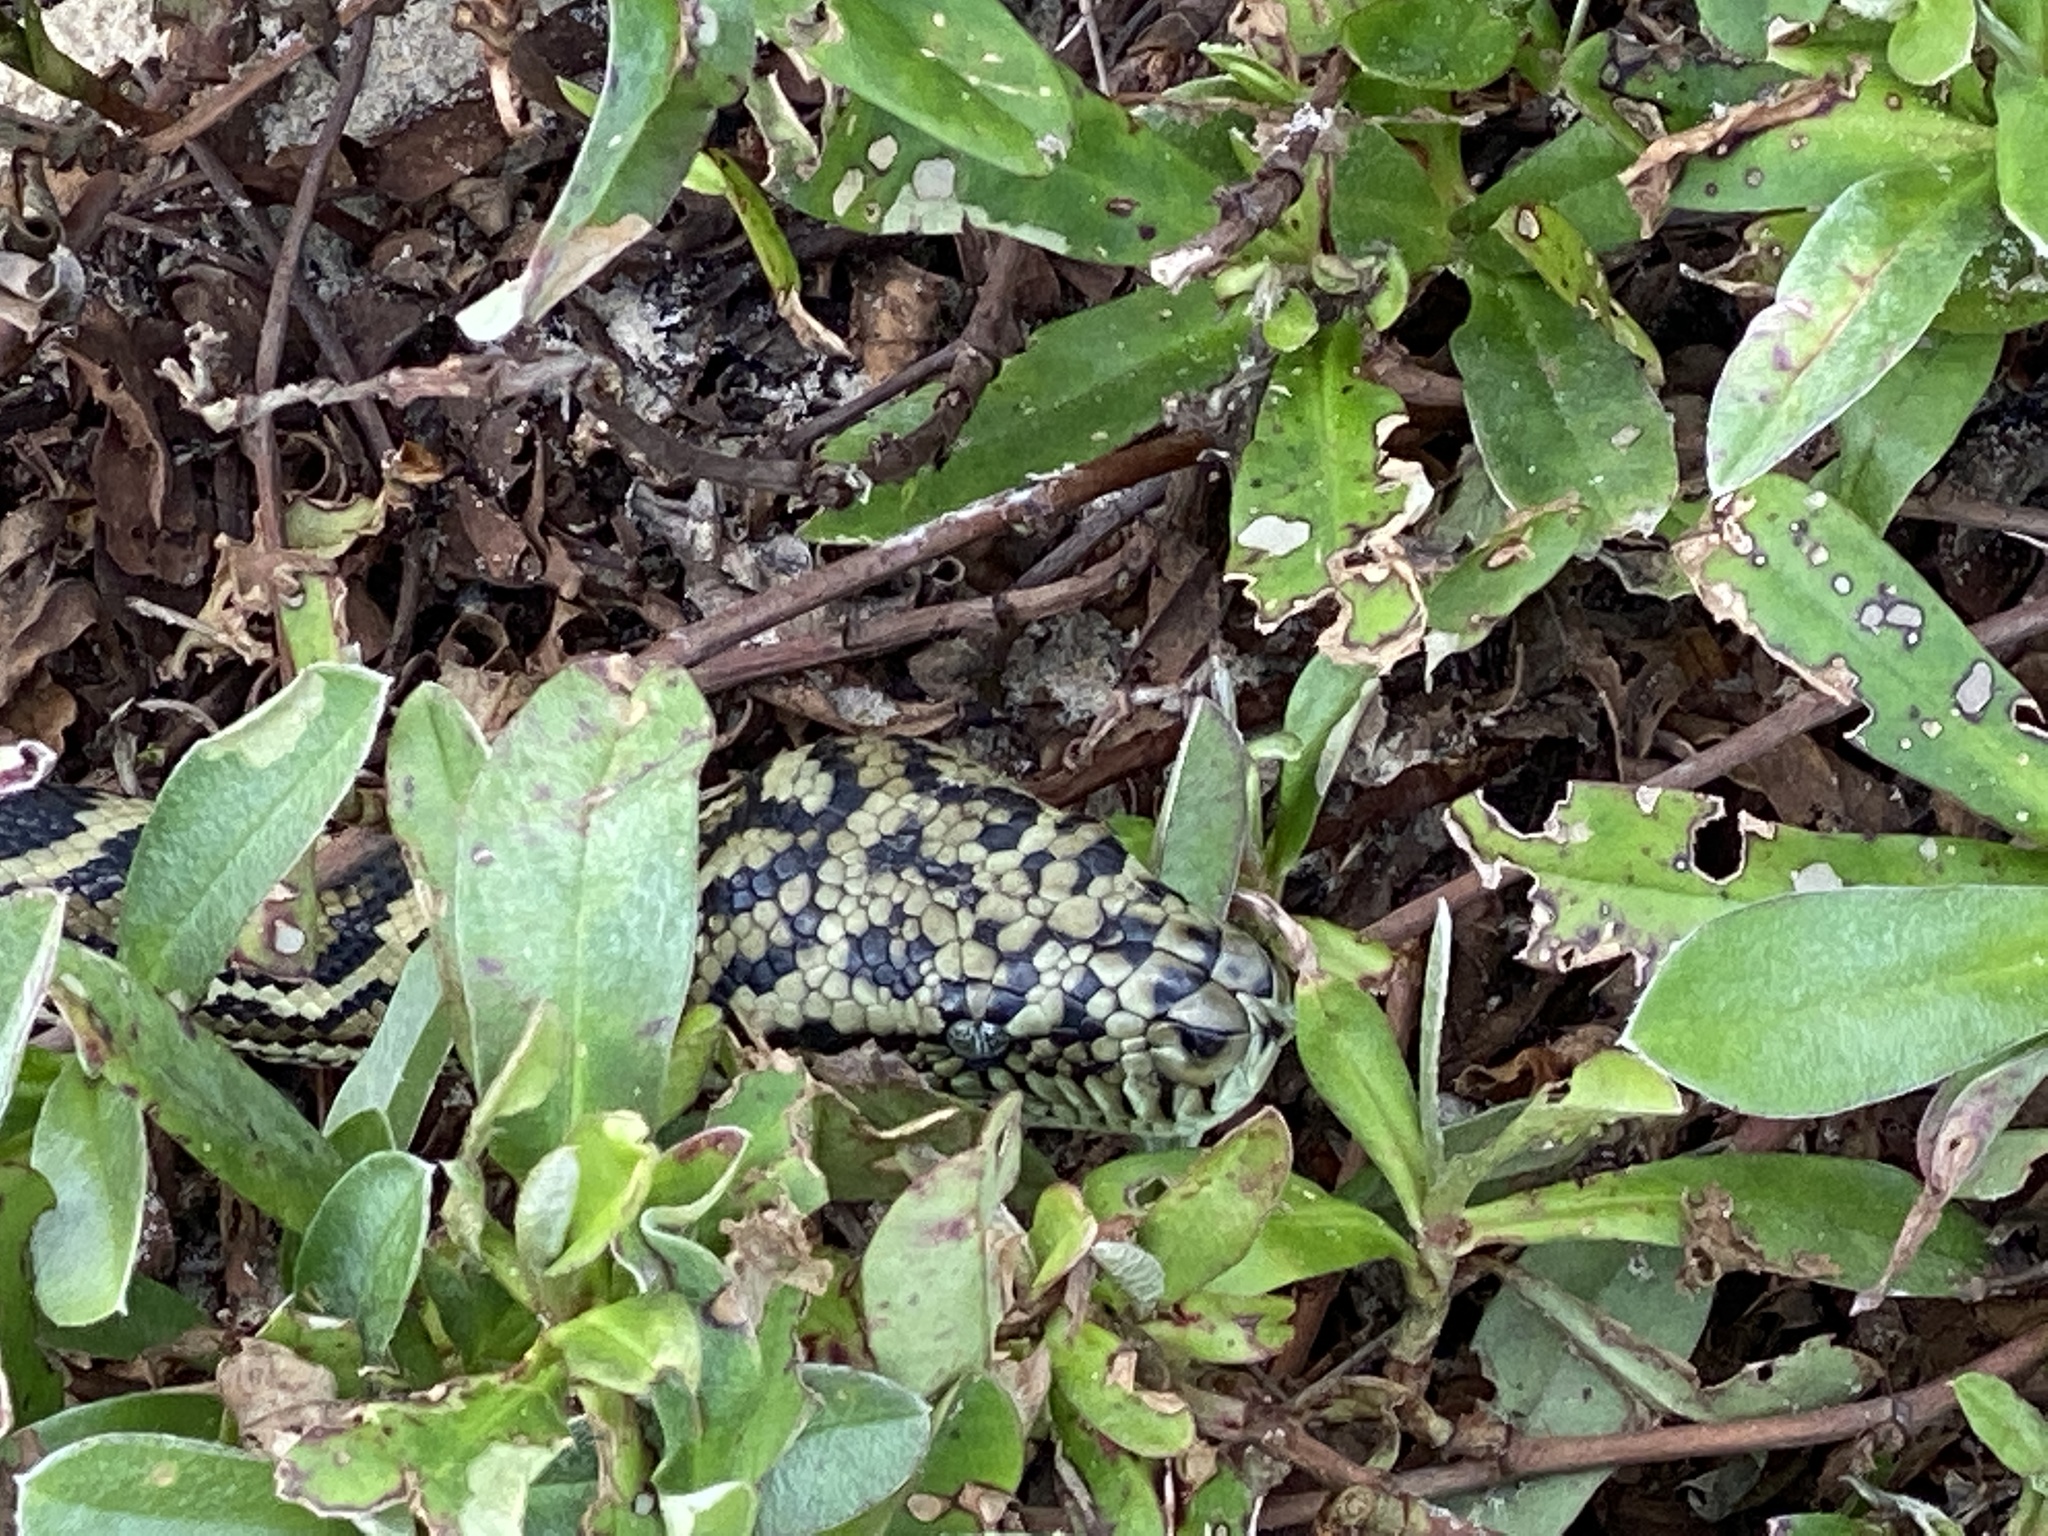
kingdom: Animalia
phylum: Chordata
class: Squamata
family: Pythonidae
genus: Morelia
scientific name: Morelia spilota
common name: Carpet python
